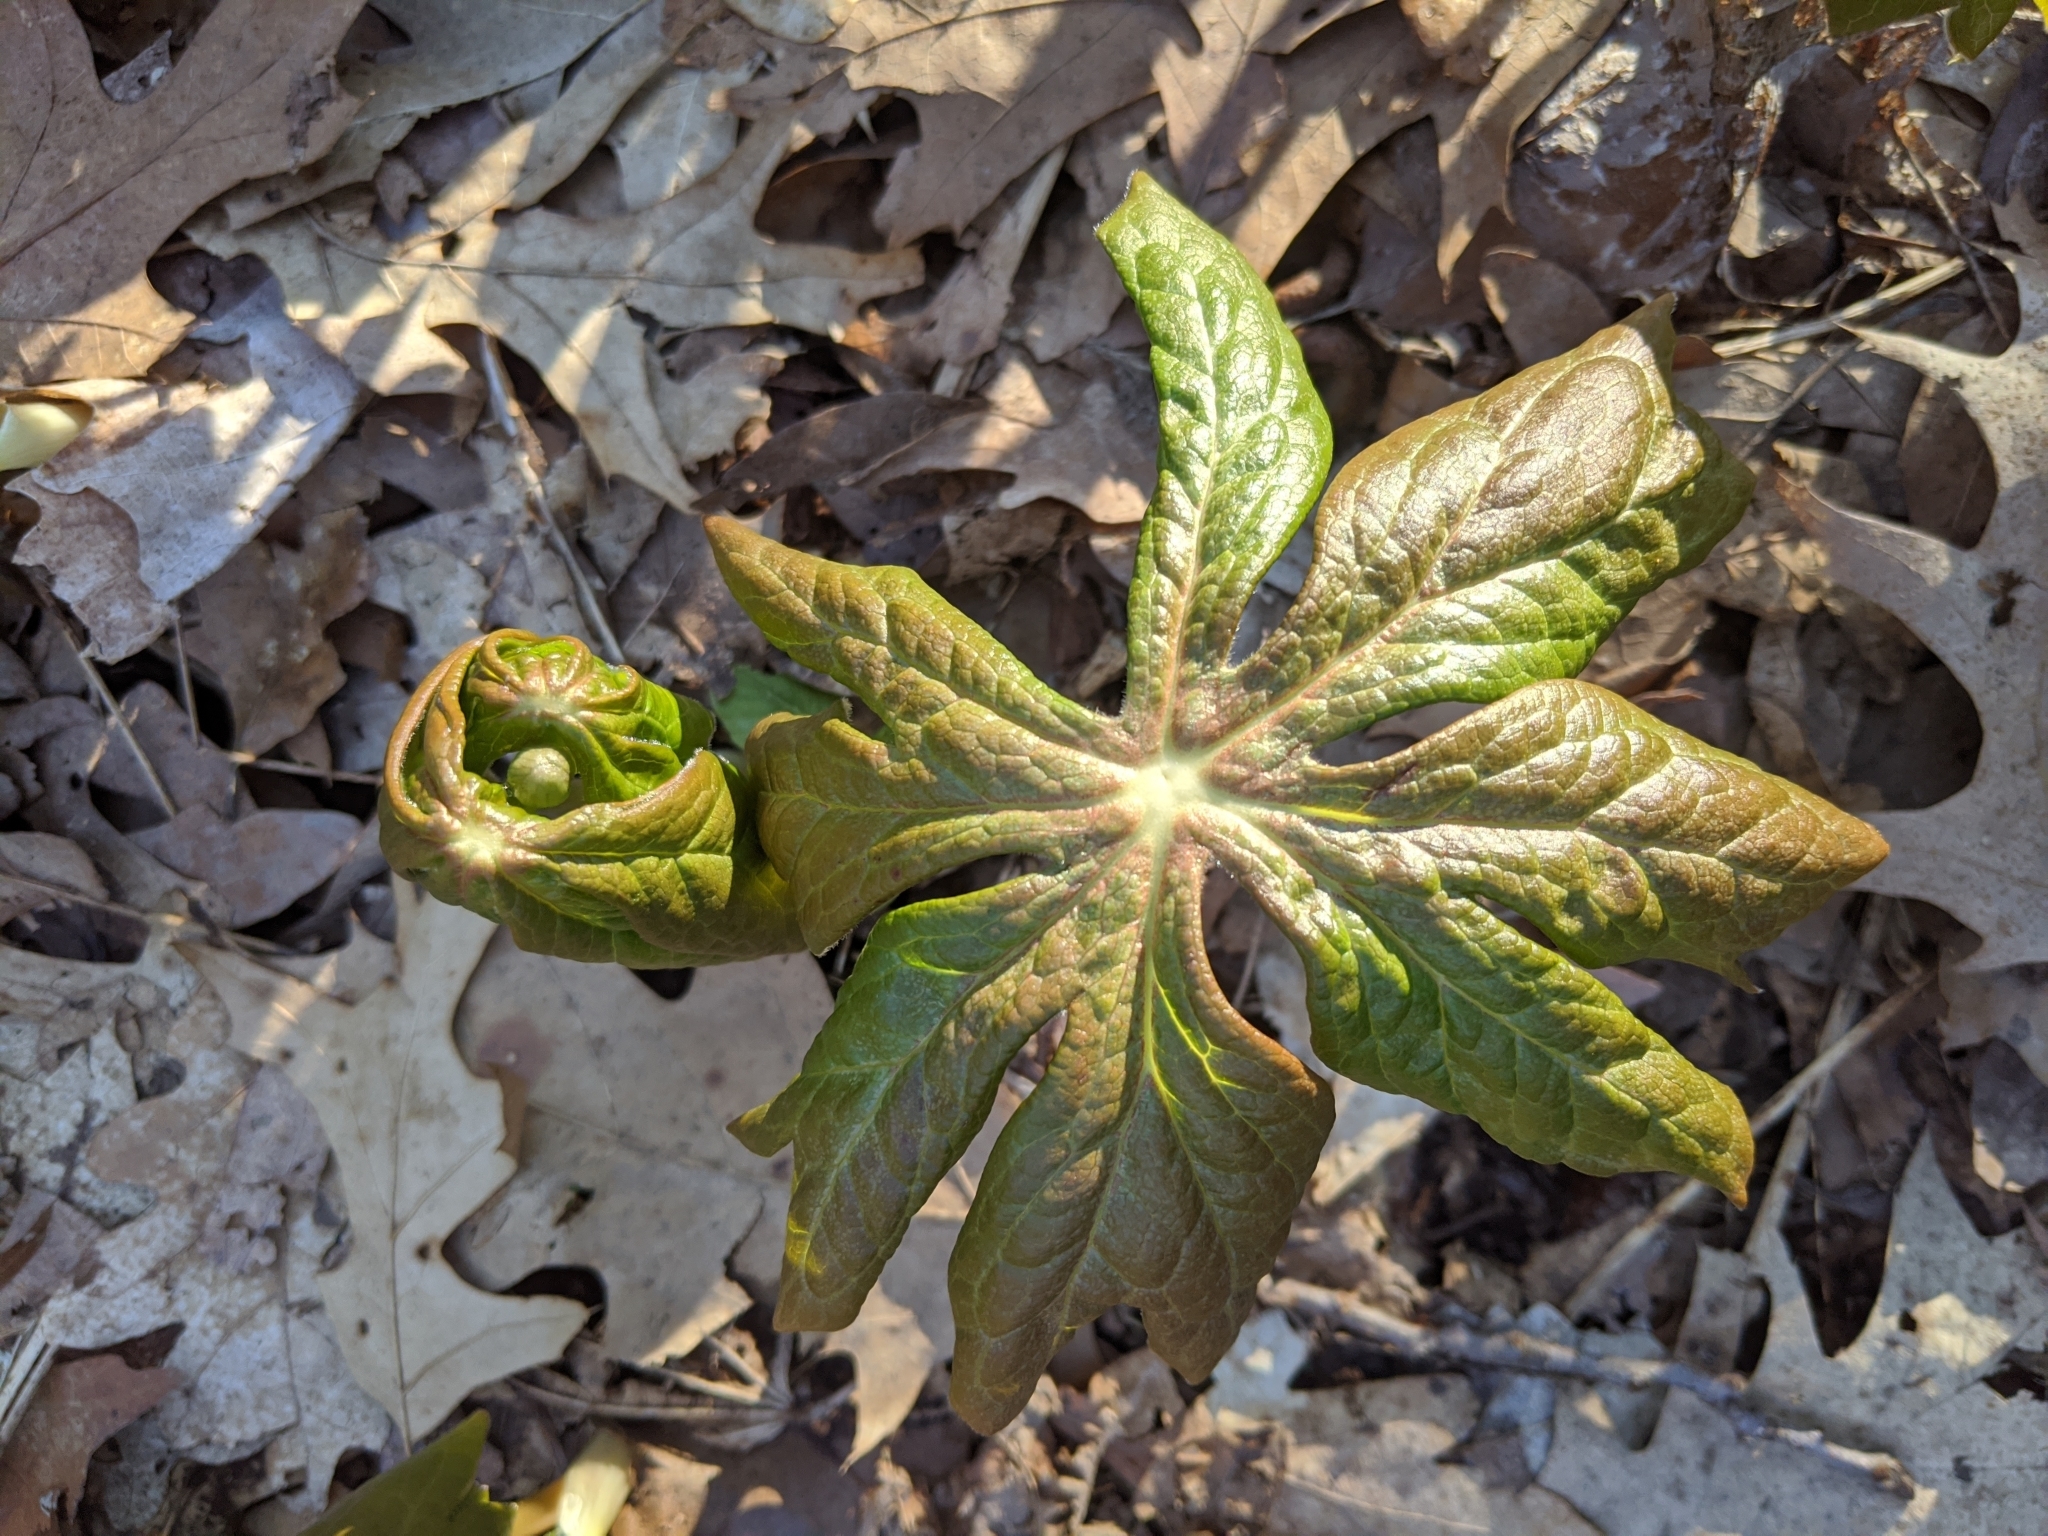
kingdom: Plantae
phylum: Tracheophyta
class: Magnoliopsida
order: Ranunculales
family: Berberidaceae
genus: Podophyllum
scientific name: Podophyllum peltatum
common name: Wild mandrake
